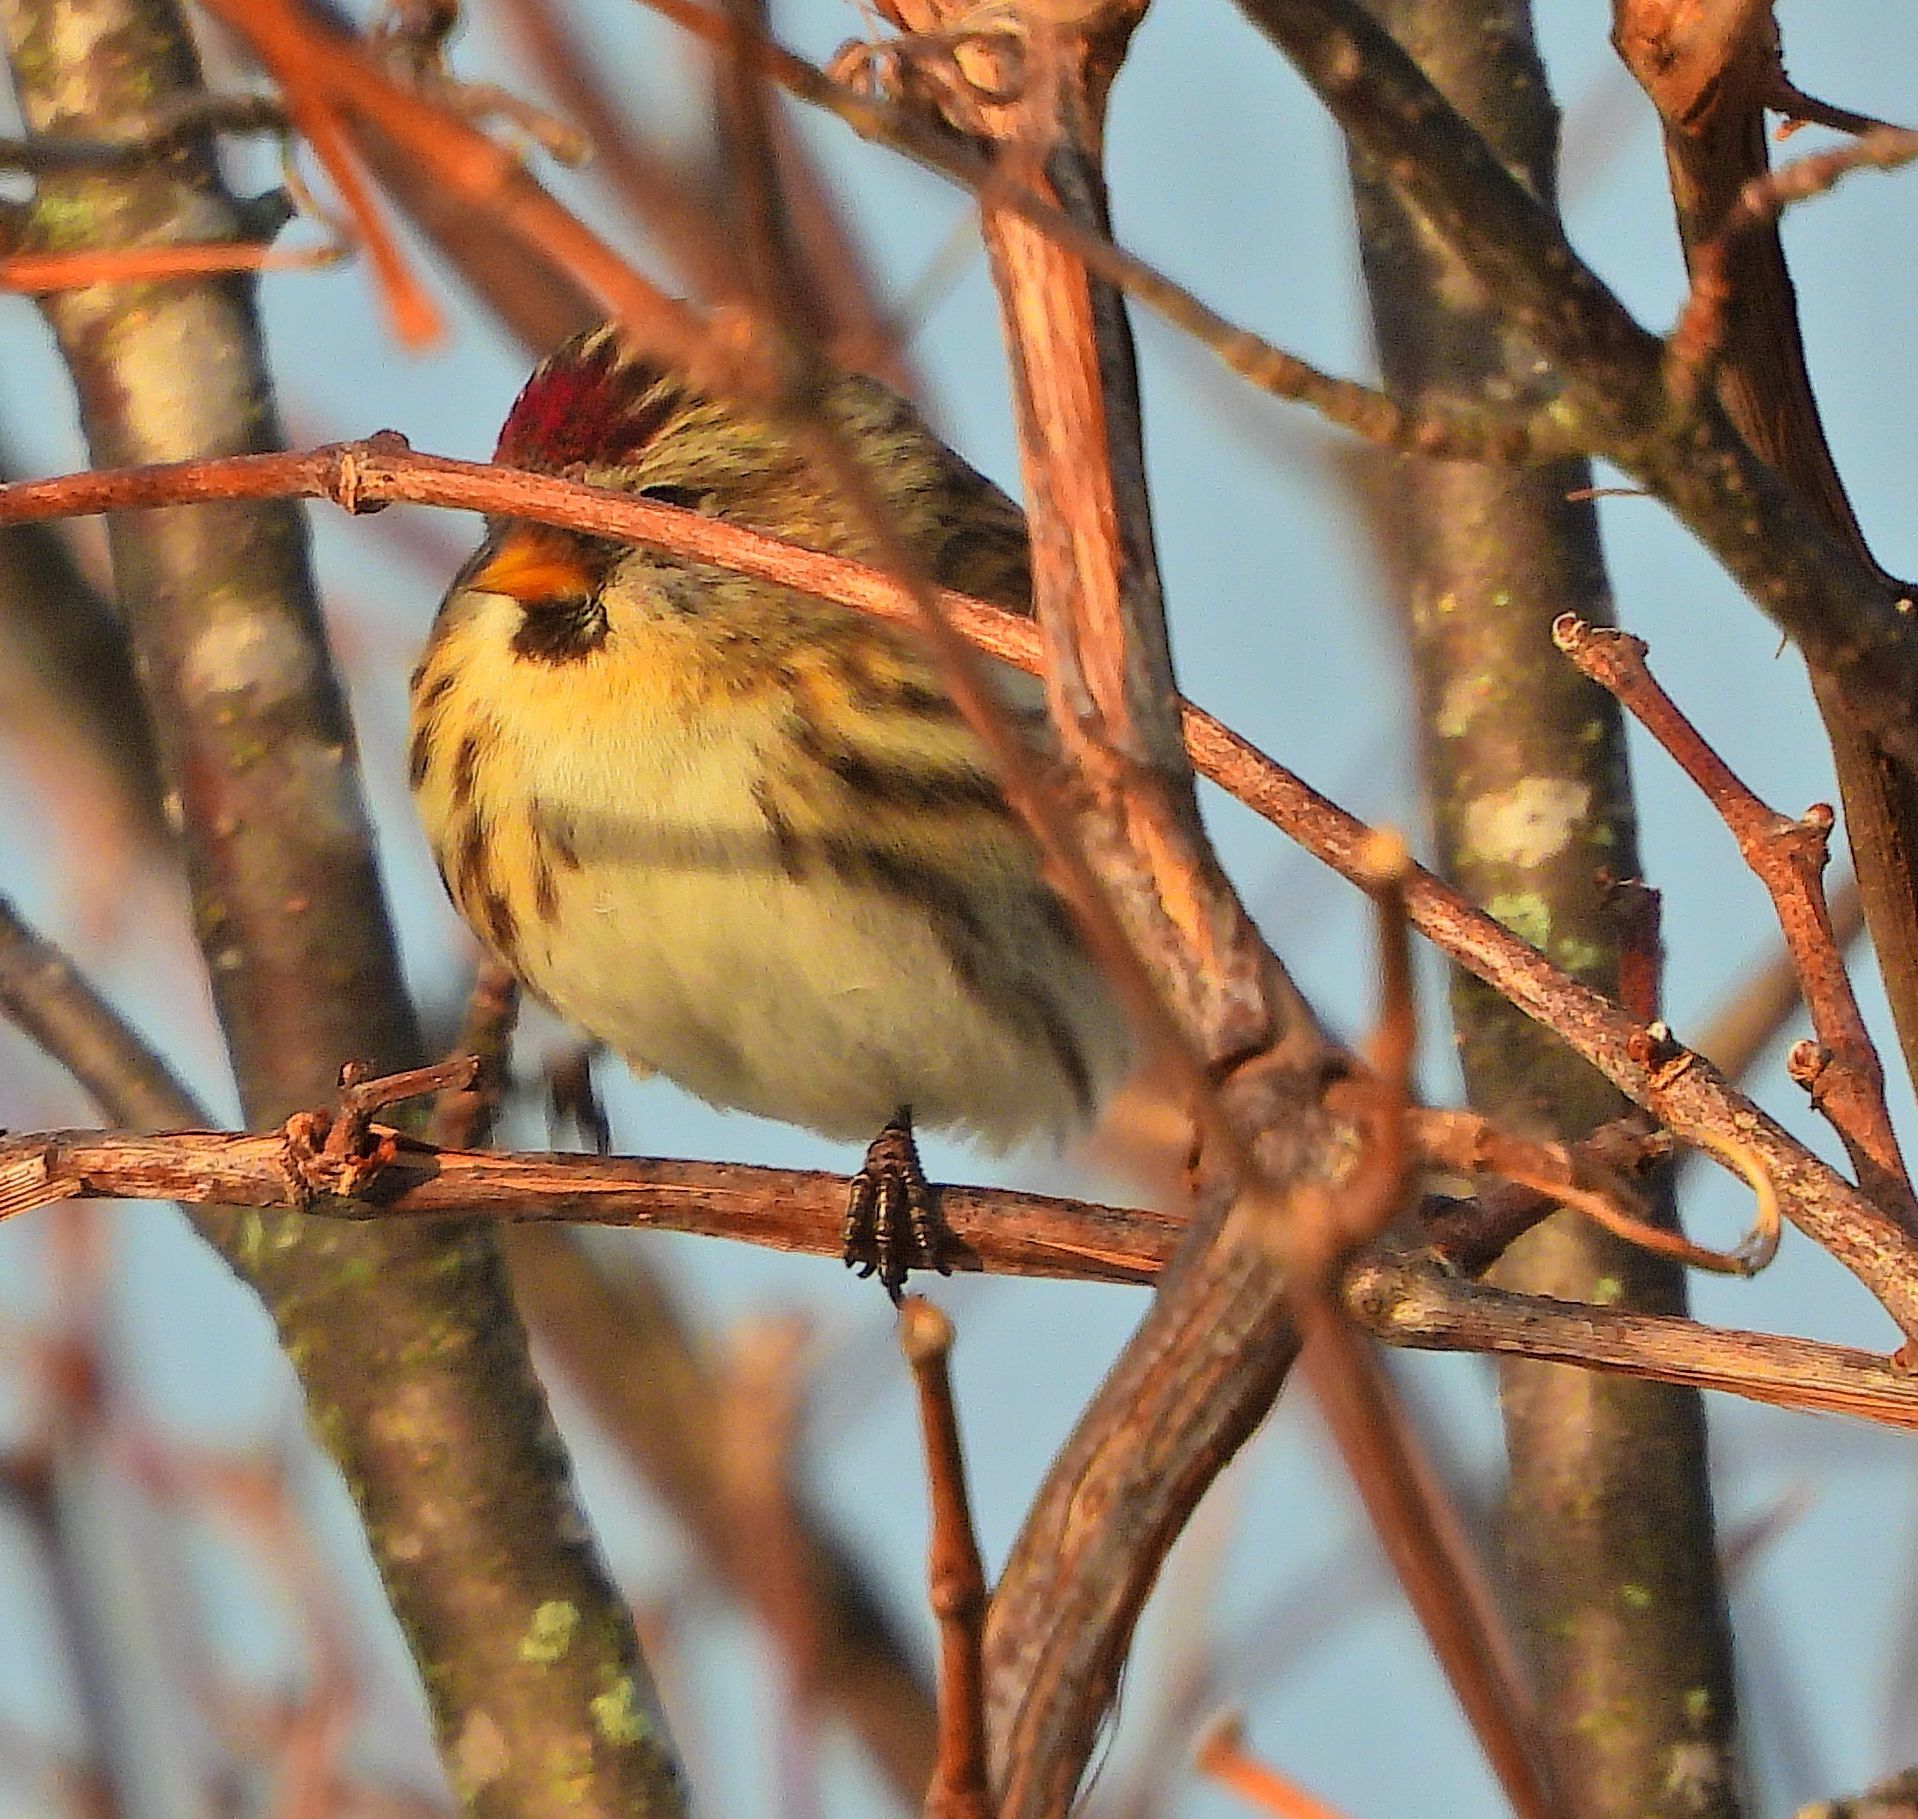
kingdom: Animalia
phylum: Chordata
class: Aves
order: Passeriformes
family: Fringillidae
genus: Acanthis
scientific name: Acanthis flammea
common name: Common redpoll
